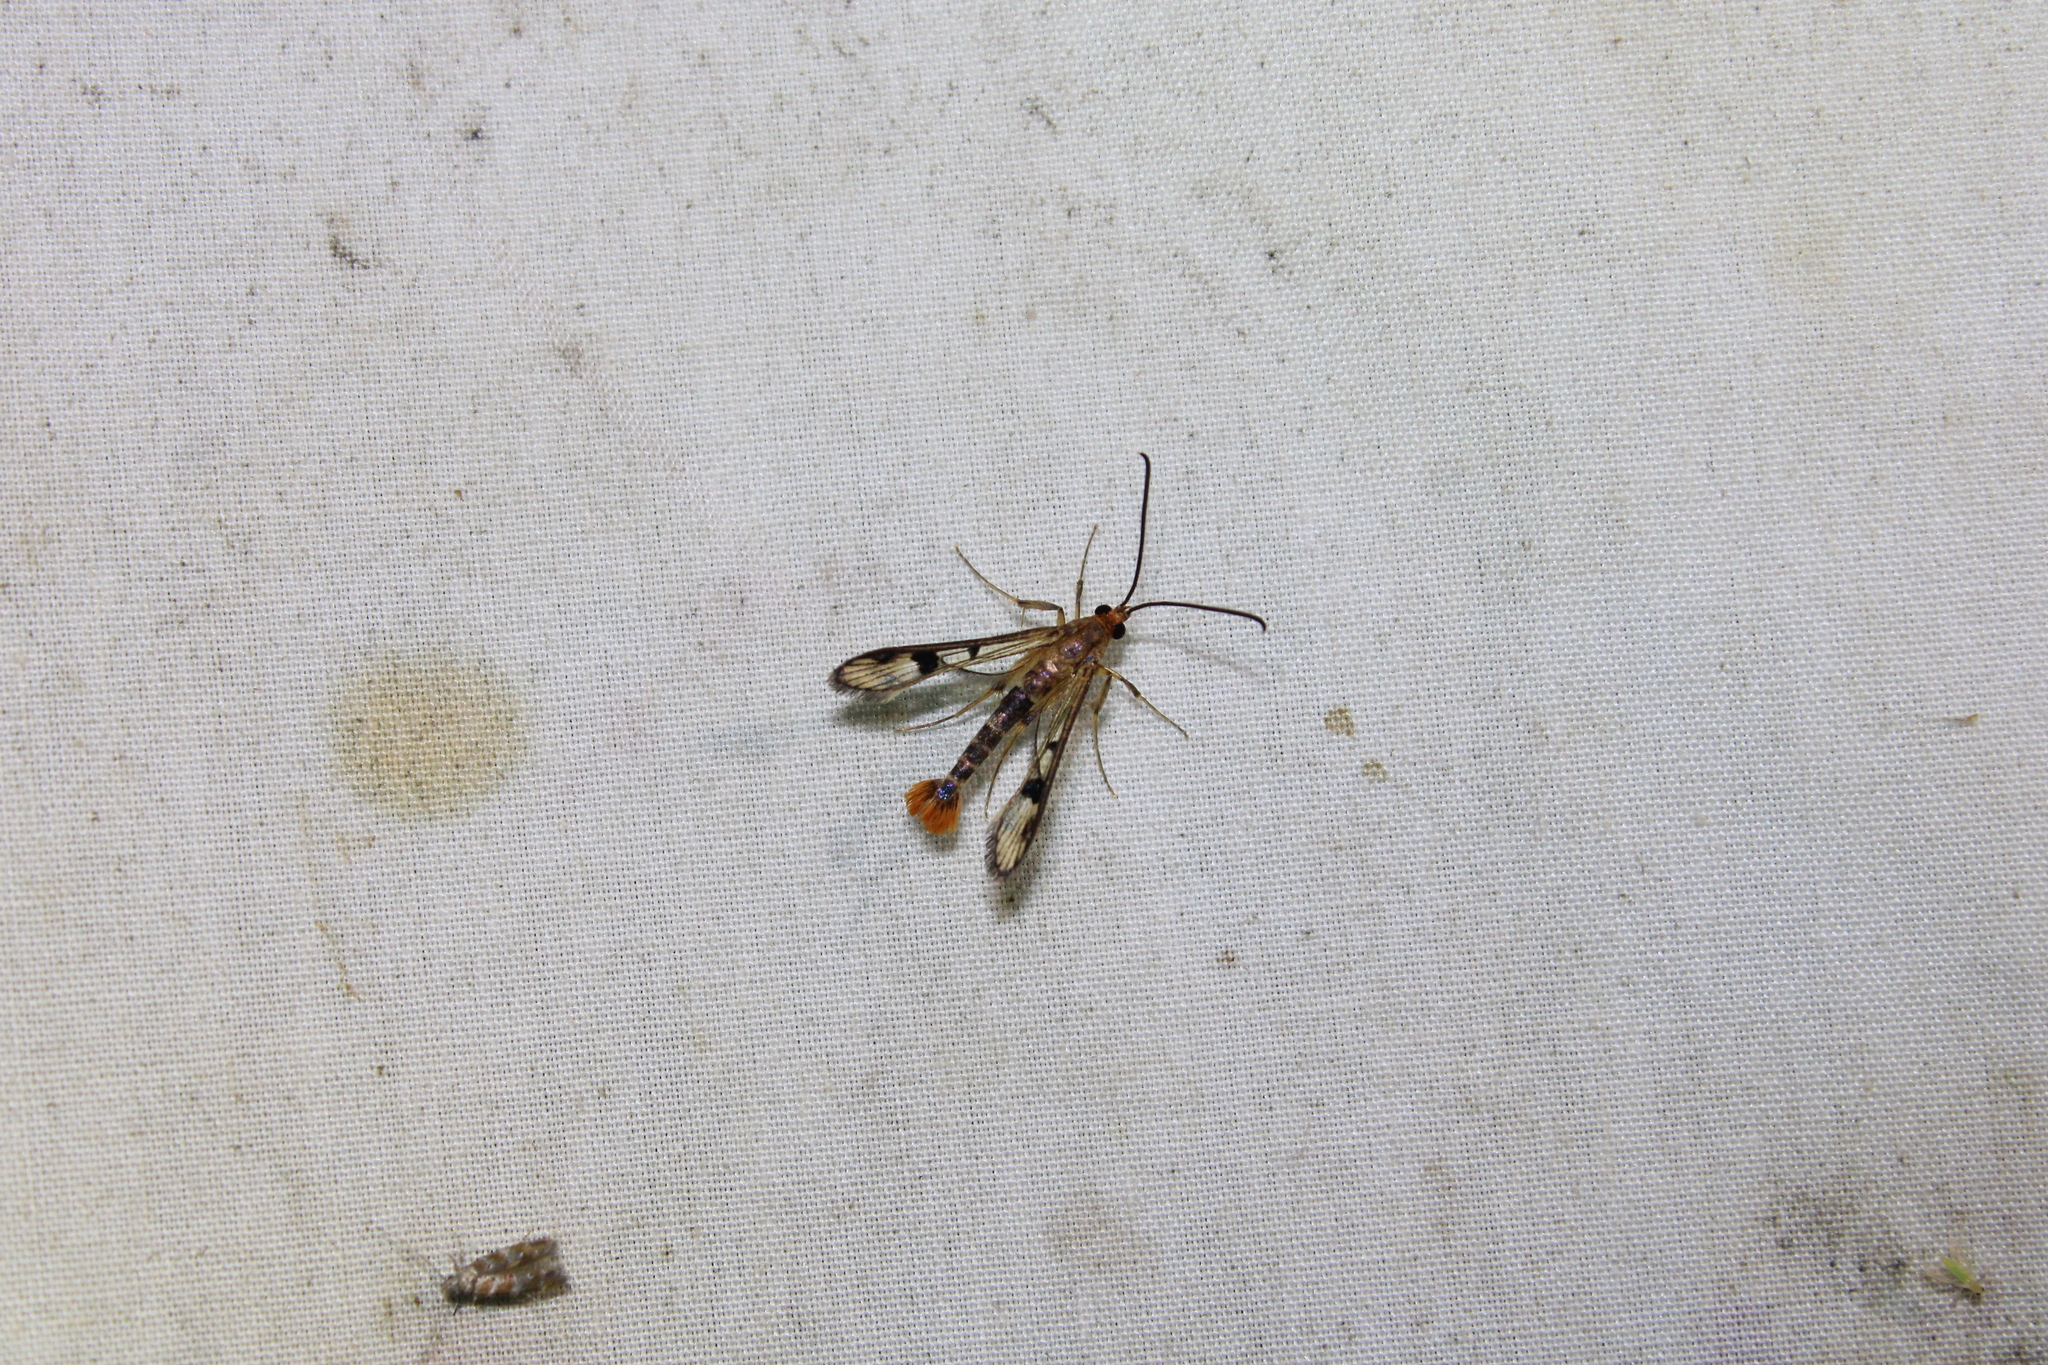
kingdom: Animalia
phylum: Arthropoda
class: Insecta
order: Lepidoptera
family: Sesiidae
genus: Synanthedon
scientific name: Synanthedon acerni
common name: Maple callus borer moth
